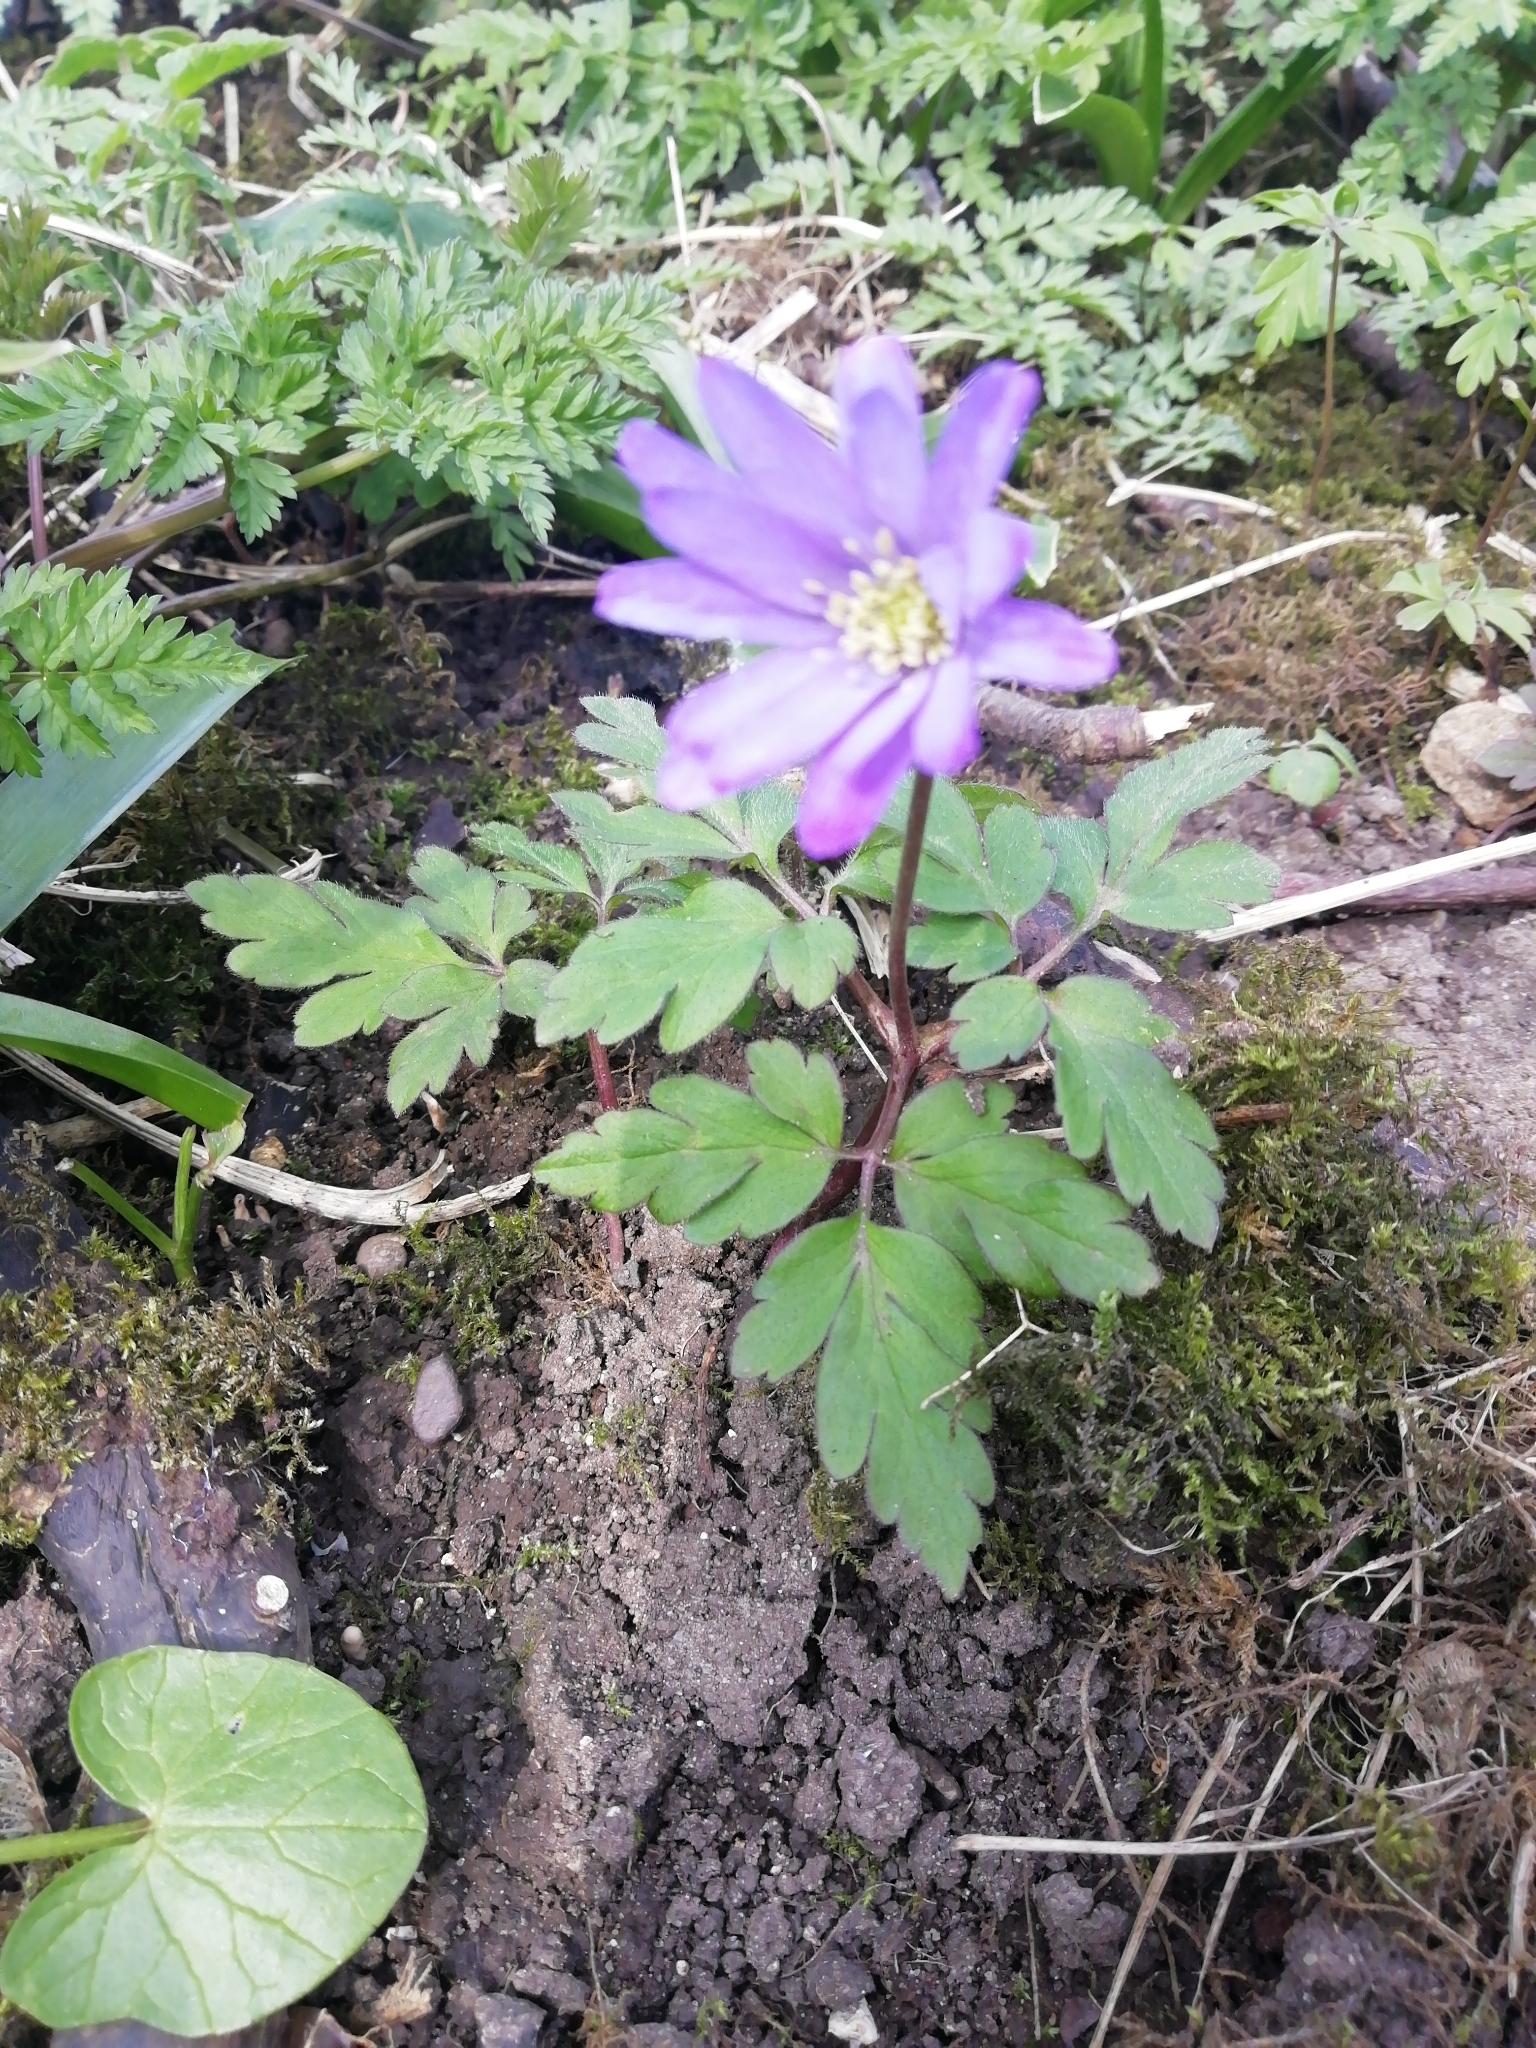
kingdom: Plantae
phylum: Tracheophyta
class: Magnoliopsida
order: Ranunculales
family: Ranunculaceae
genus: Anemone
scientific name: Anemone apennina
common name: Blue anemone
